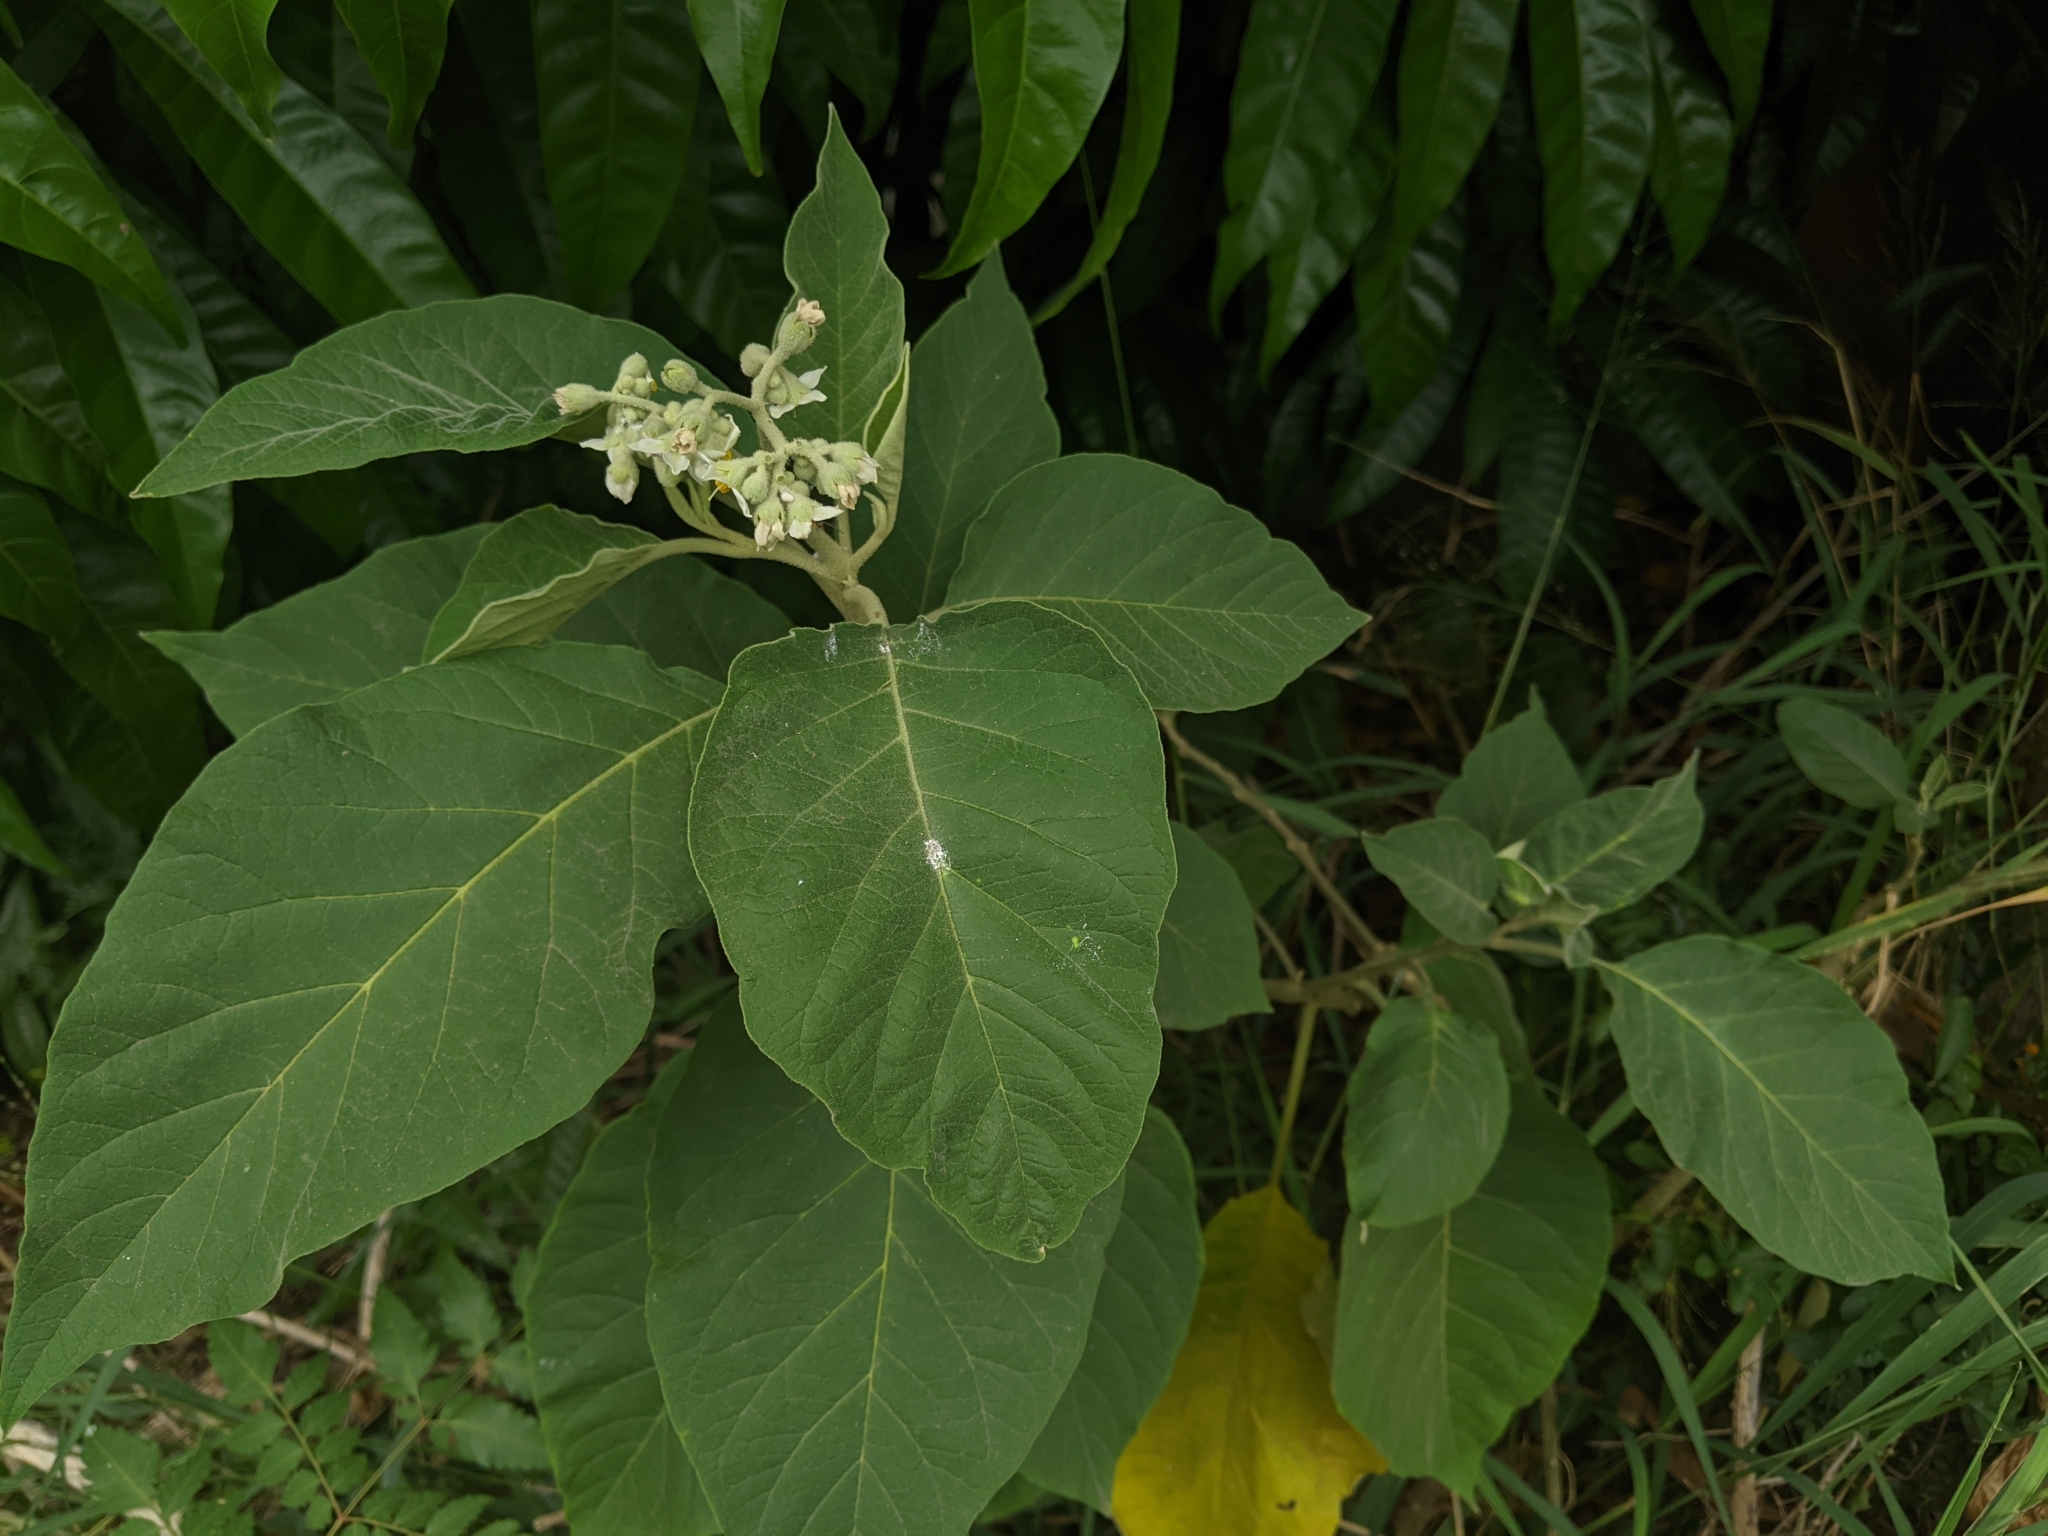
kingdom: Plantae
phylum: Tracheophyta
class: Magnoliopsida
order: Solanales
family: Solanaceae
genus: Solanum
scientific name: Solanum erianthum
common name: Tobacco-tree
